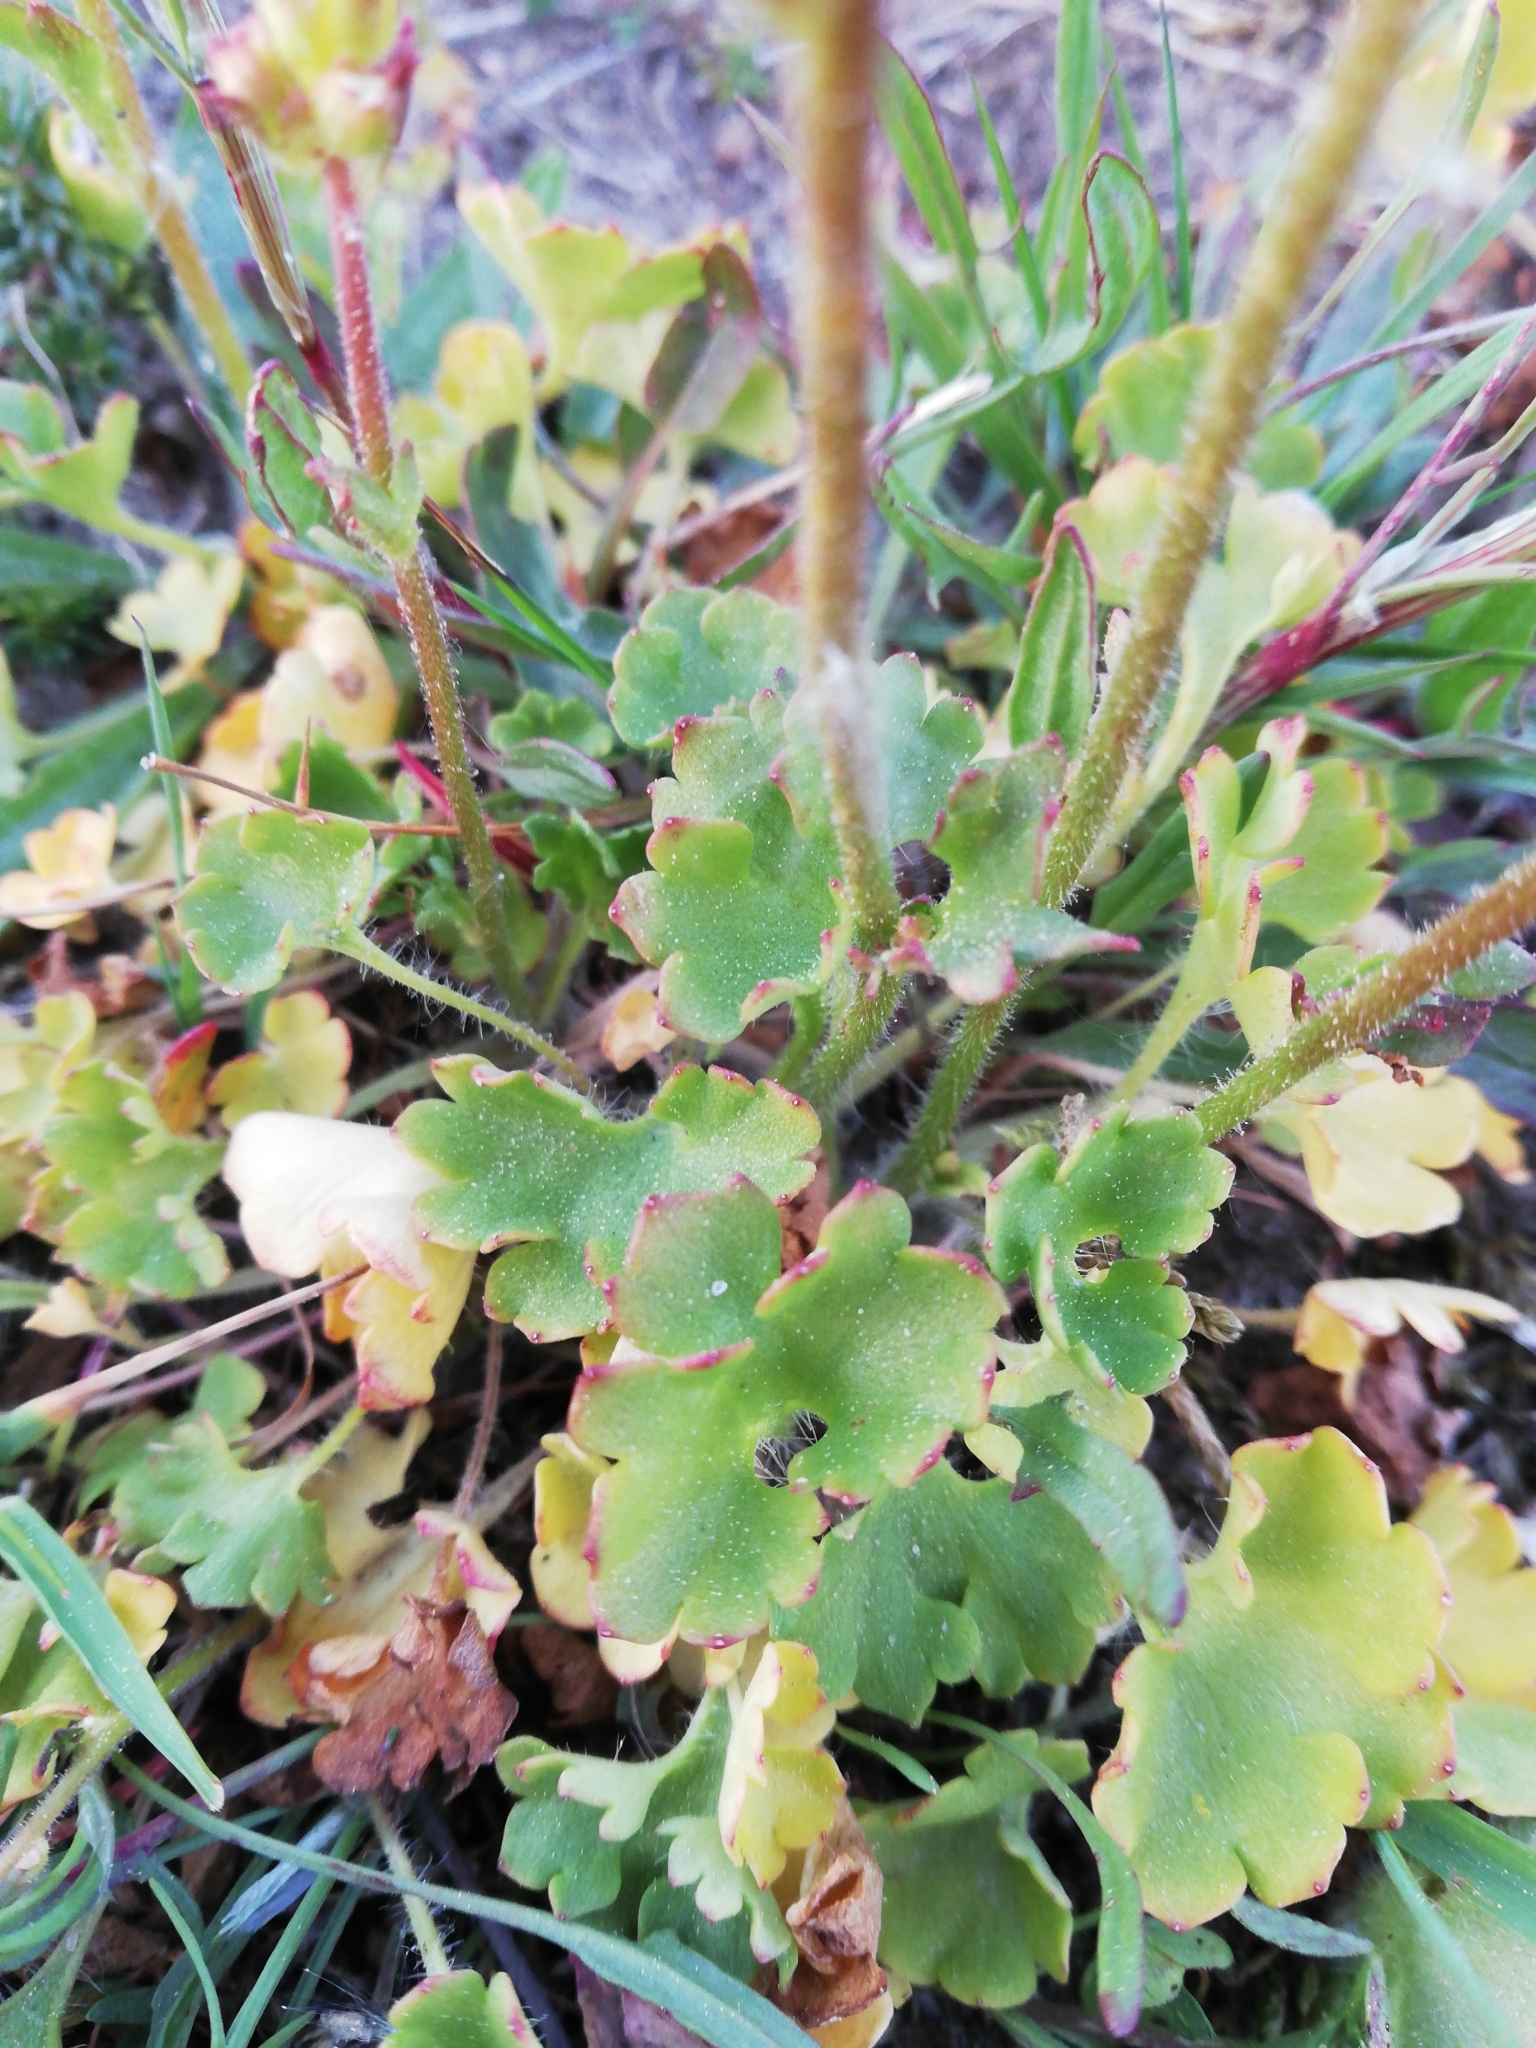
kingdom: Plantae
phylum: Tracheophyta
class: Magnoliopsida
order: Saxifragales
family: Saxifragaceae
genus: Saxifraga
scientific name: Saxifraga granulata
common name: Meadow saxifrage
